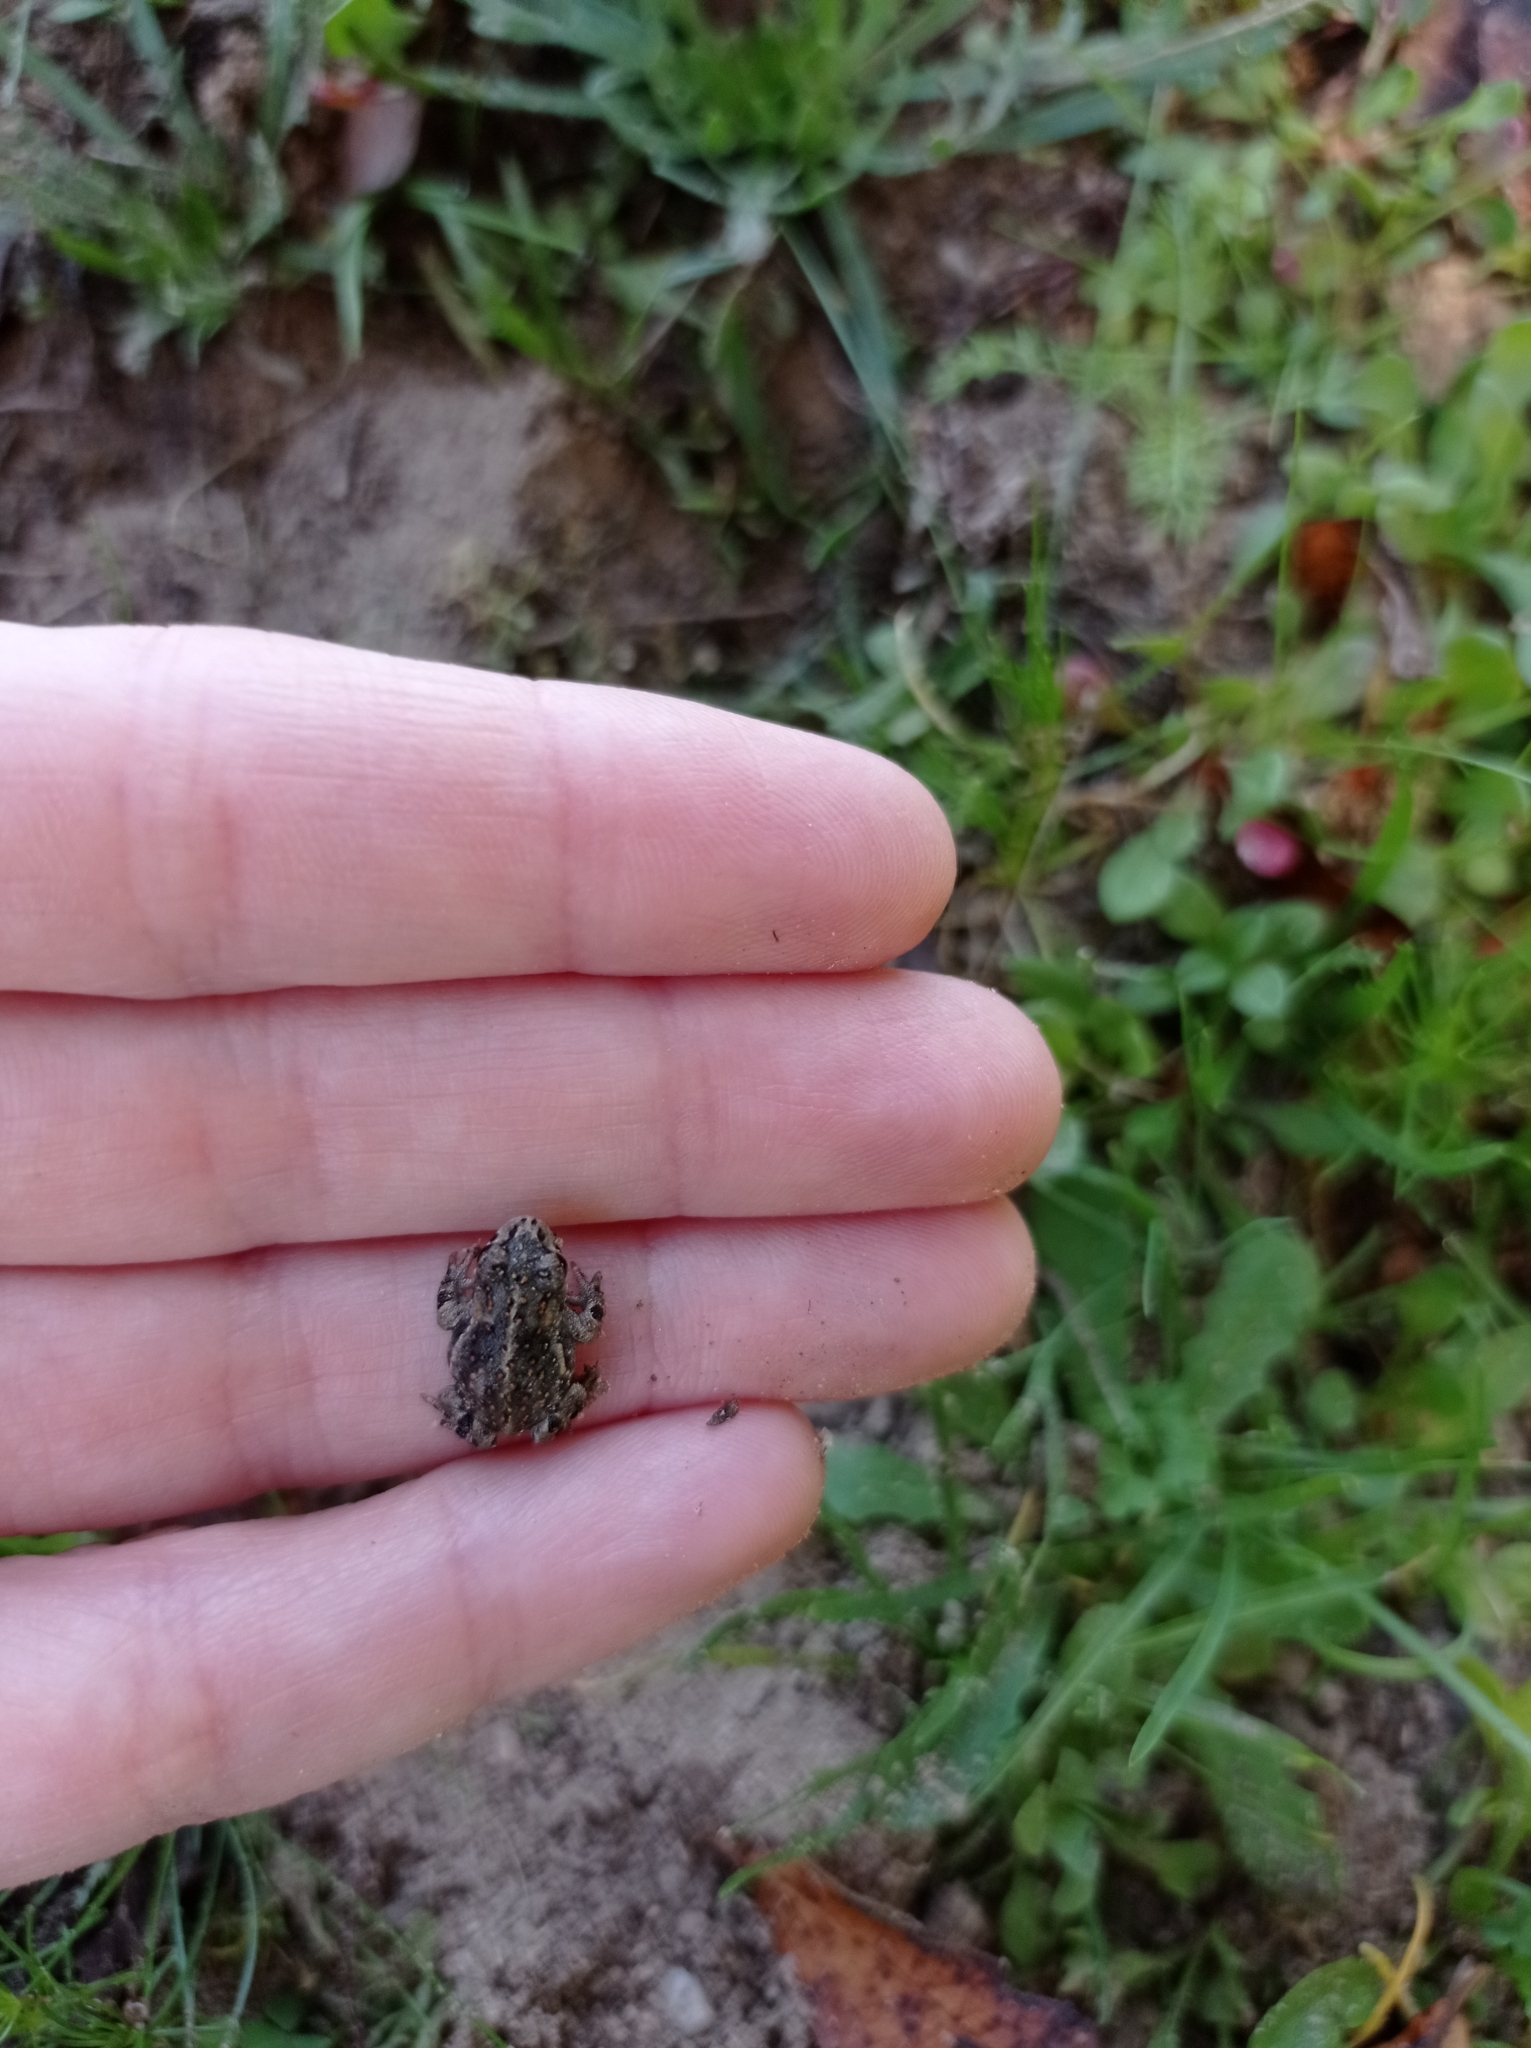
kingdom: Animalia
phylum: Chordata
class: Amphibia
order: Anura
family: Bufonidae
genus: Epidalea
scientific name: Epidalea calamita
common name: Natterjack toad
